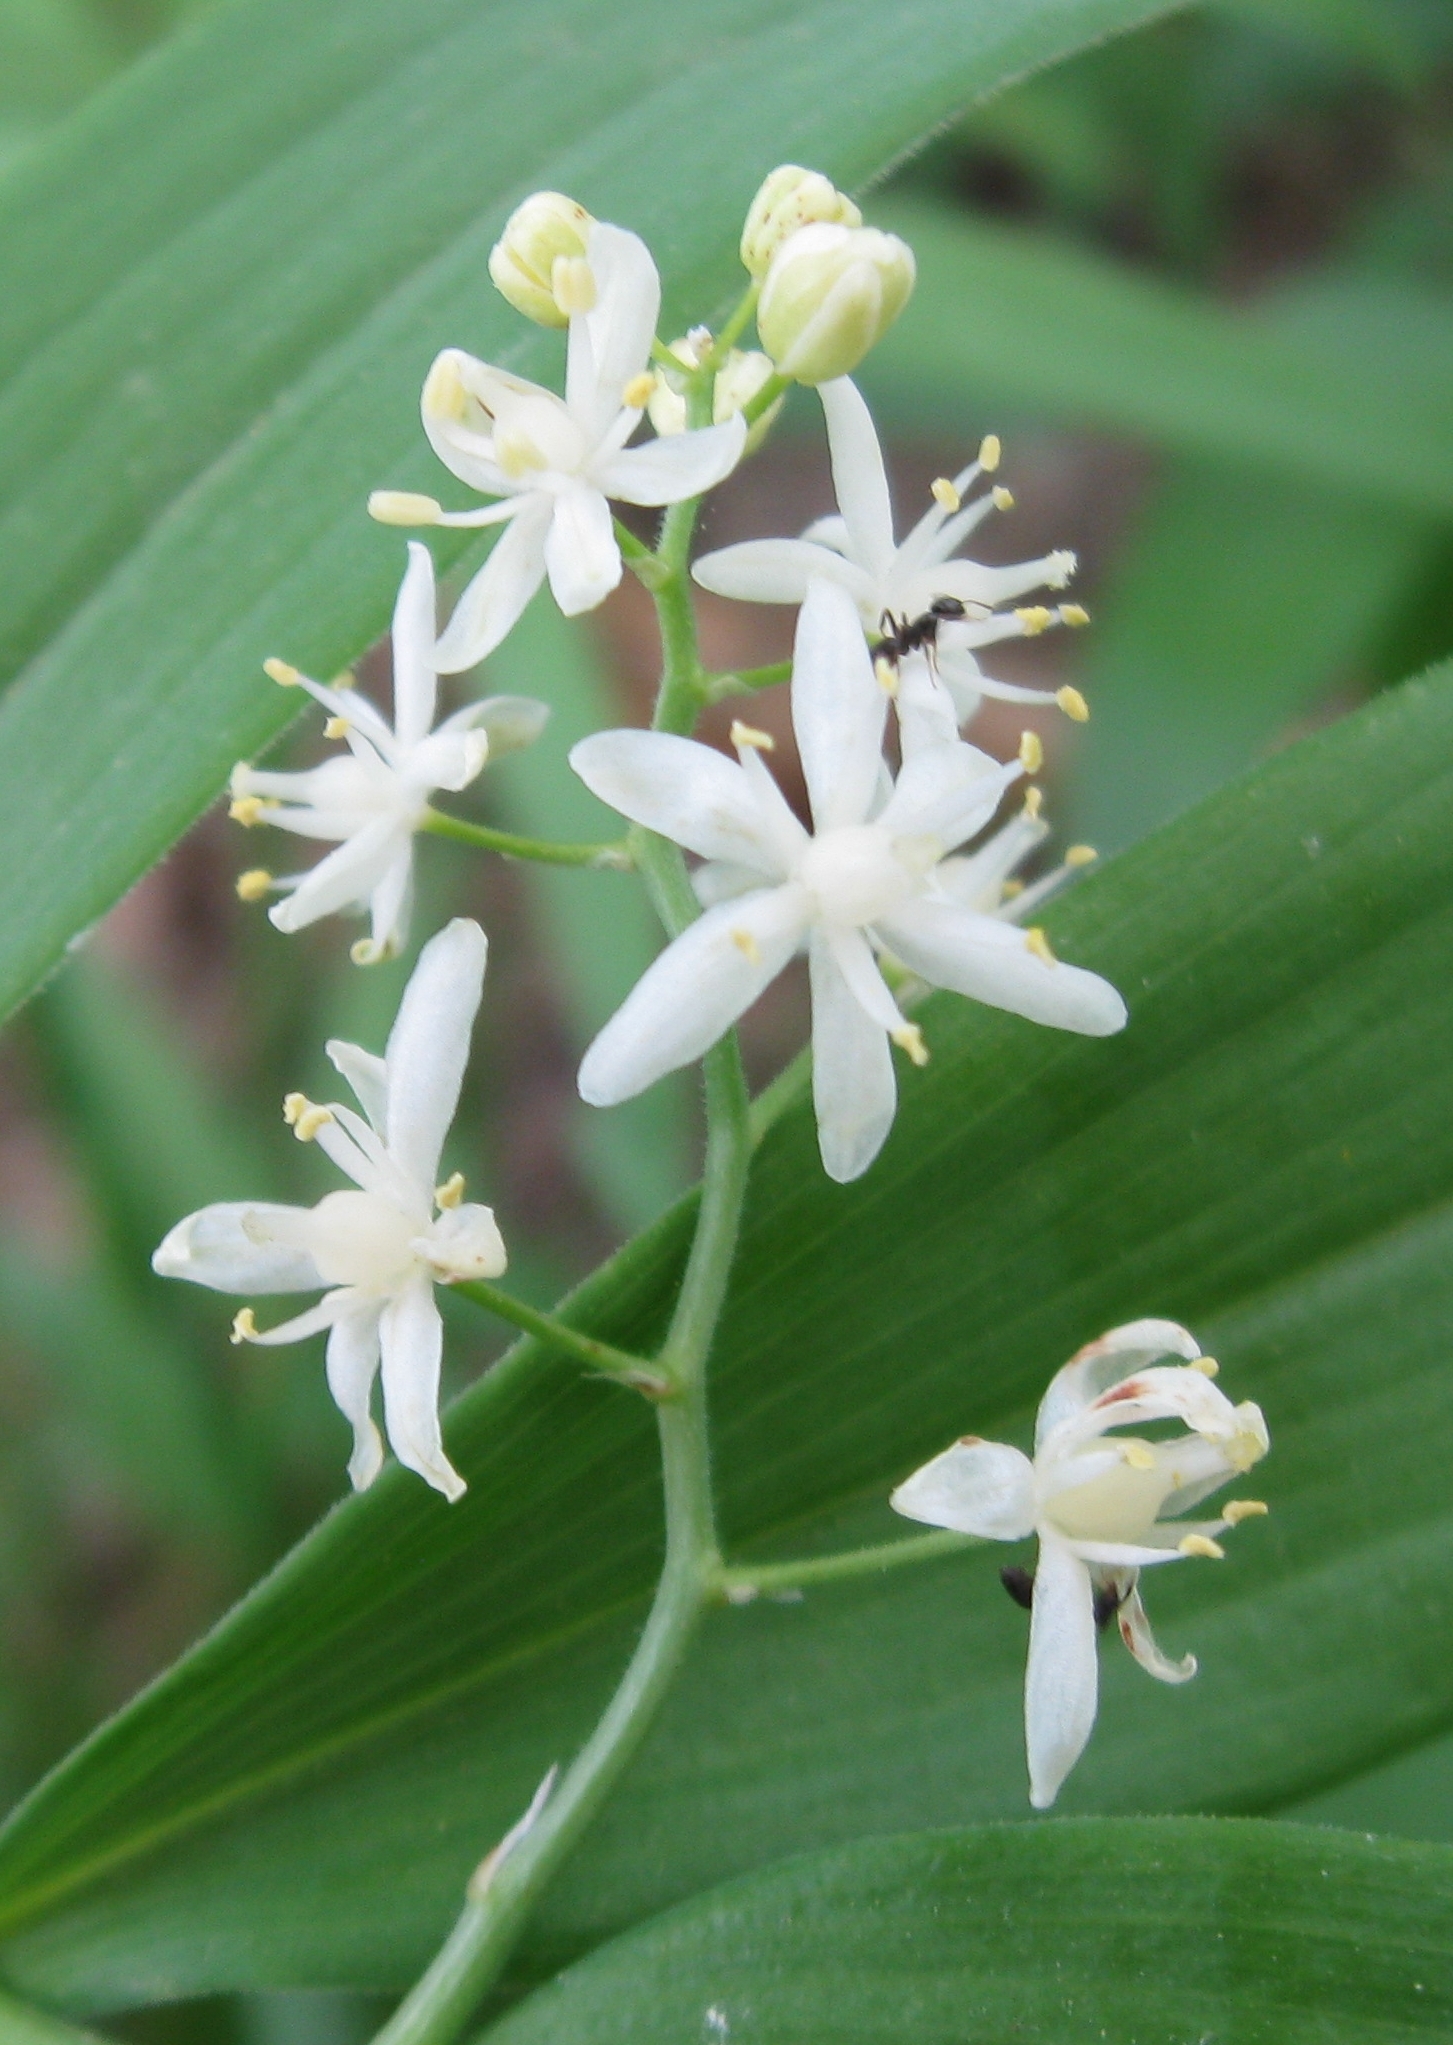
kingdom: Plantae
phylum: Tracheophyta
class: Liliopsida
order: Asparagales
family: Asparagaceae
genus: Maianthemum
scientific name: Maianthemum stellatum
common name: Little false solomon's seal
